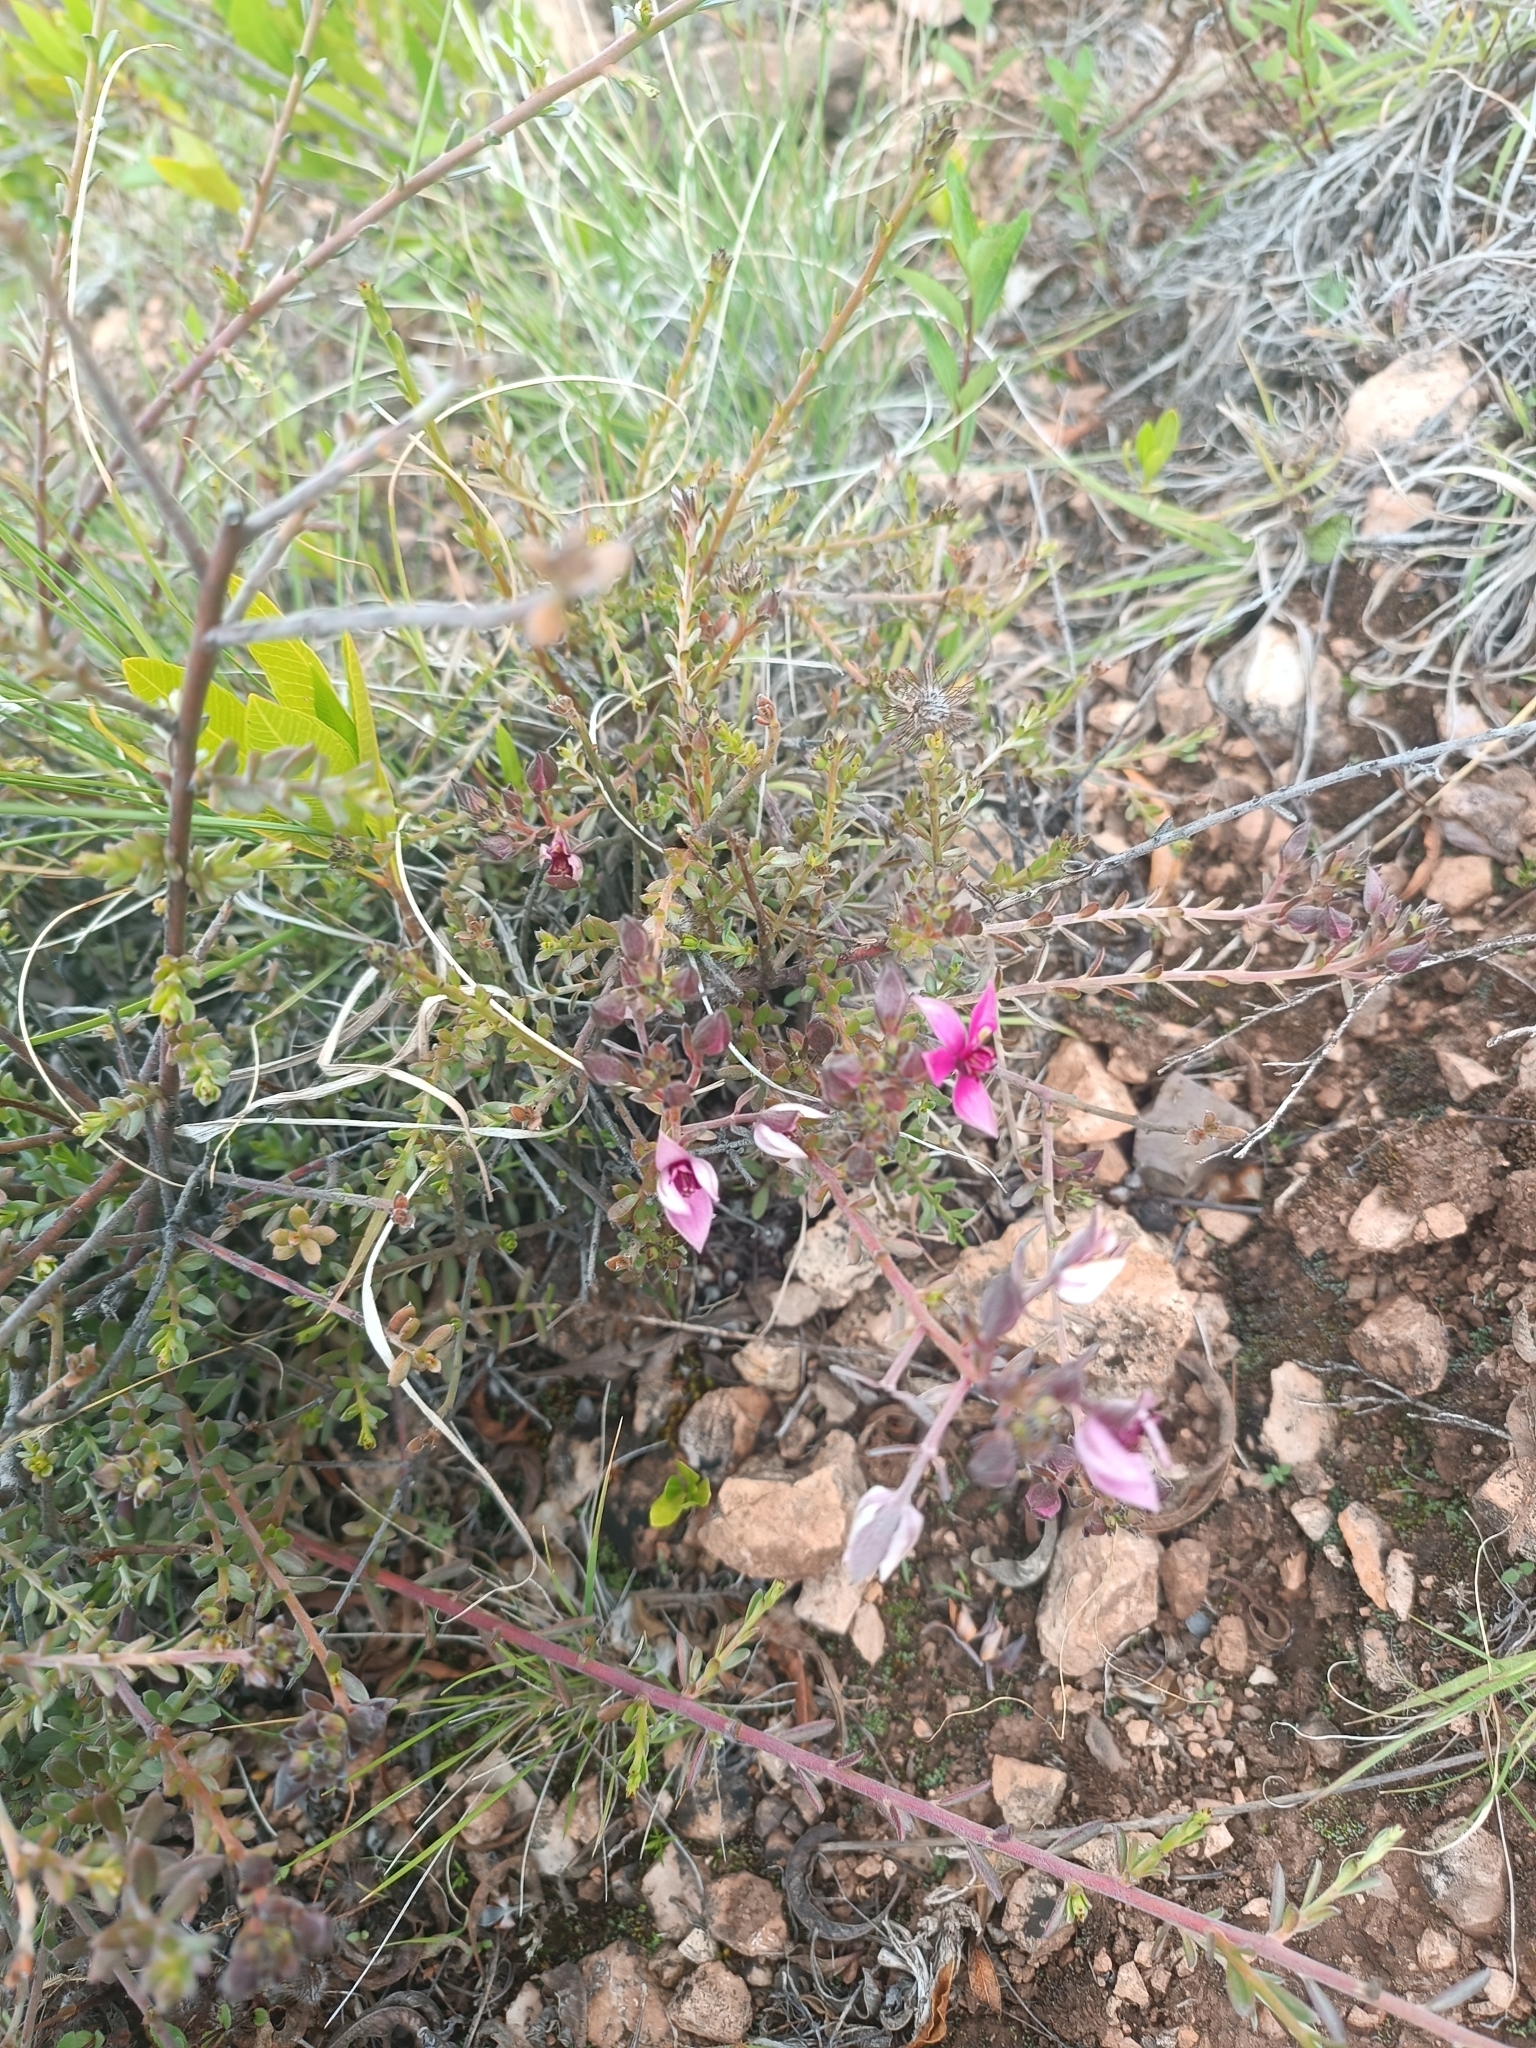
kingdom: Plantae
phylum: Tracheophyta
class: Magnoliopsida
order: Zygophyllales
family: Krameriaceae
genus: Krameria
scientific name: Krameria lappacea
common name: Rhatany
